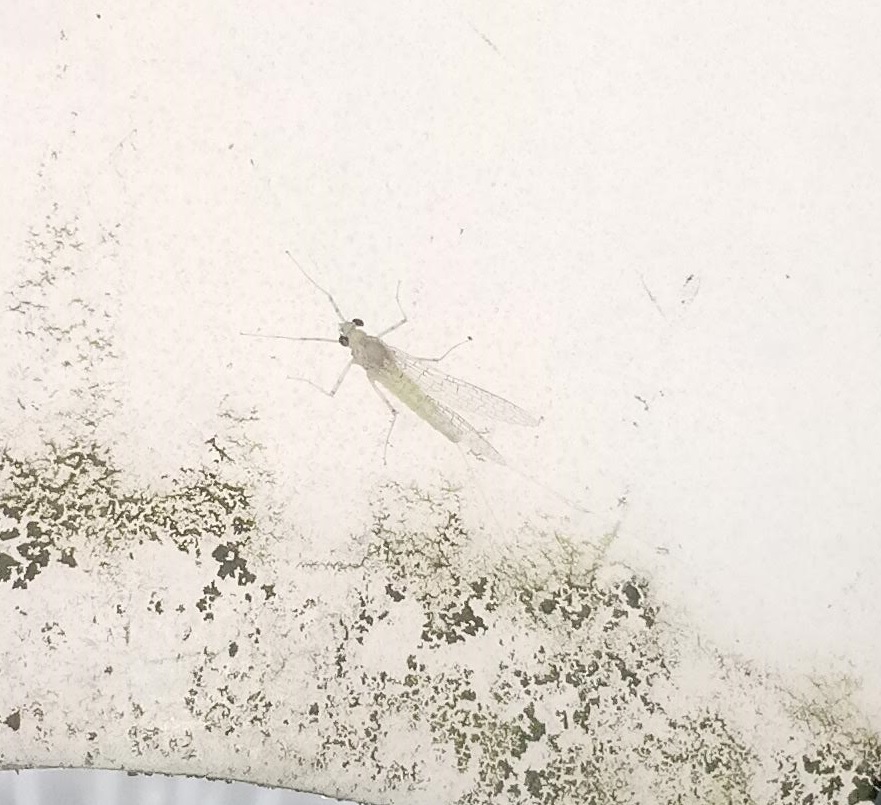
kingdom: Animalia
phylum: Arthropoda
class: Insecta
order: Ephemeroptera
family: Heptageniidae
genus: Maccaffertium
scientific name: Maccaffertium terminatum
